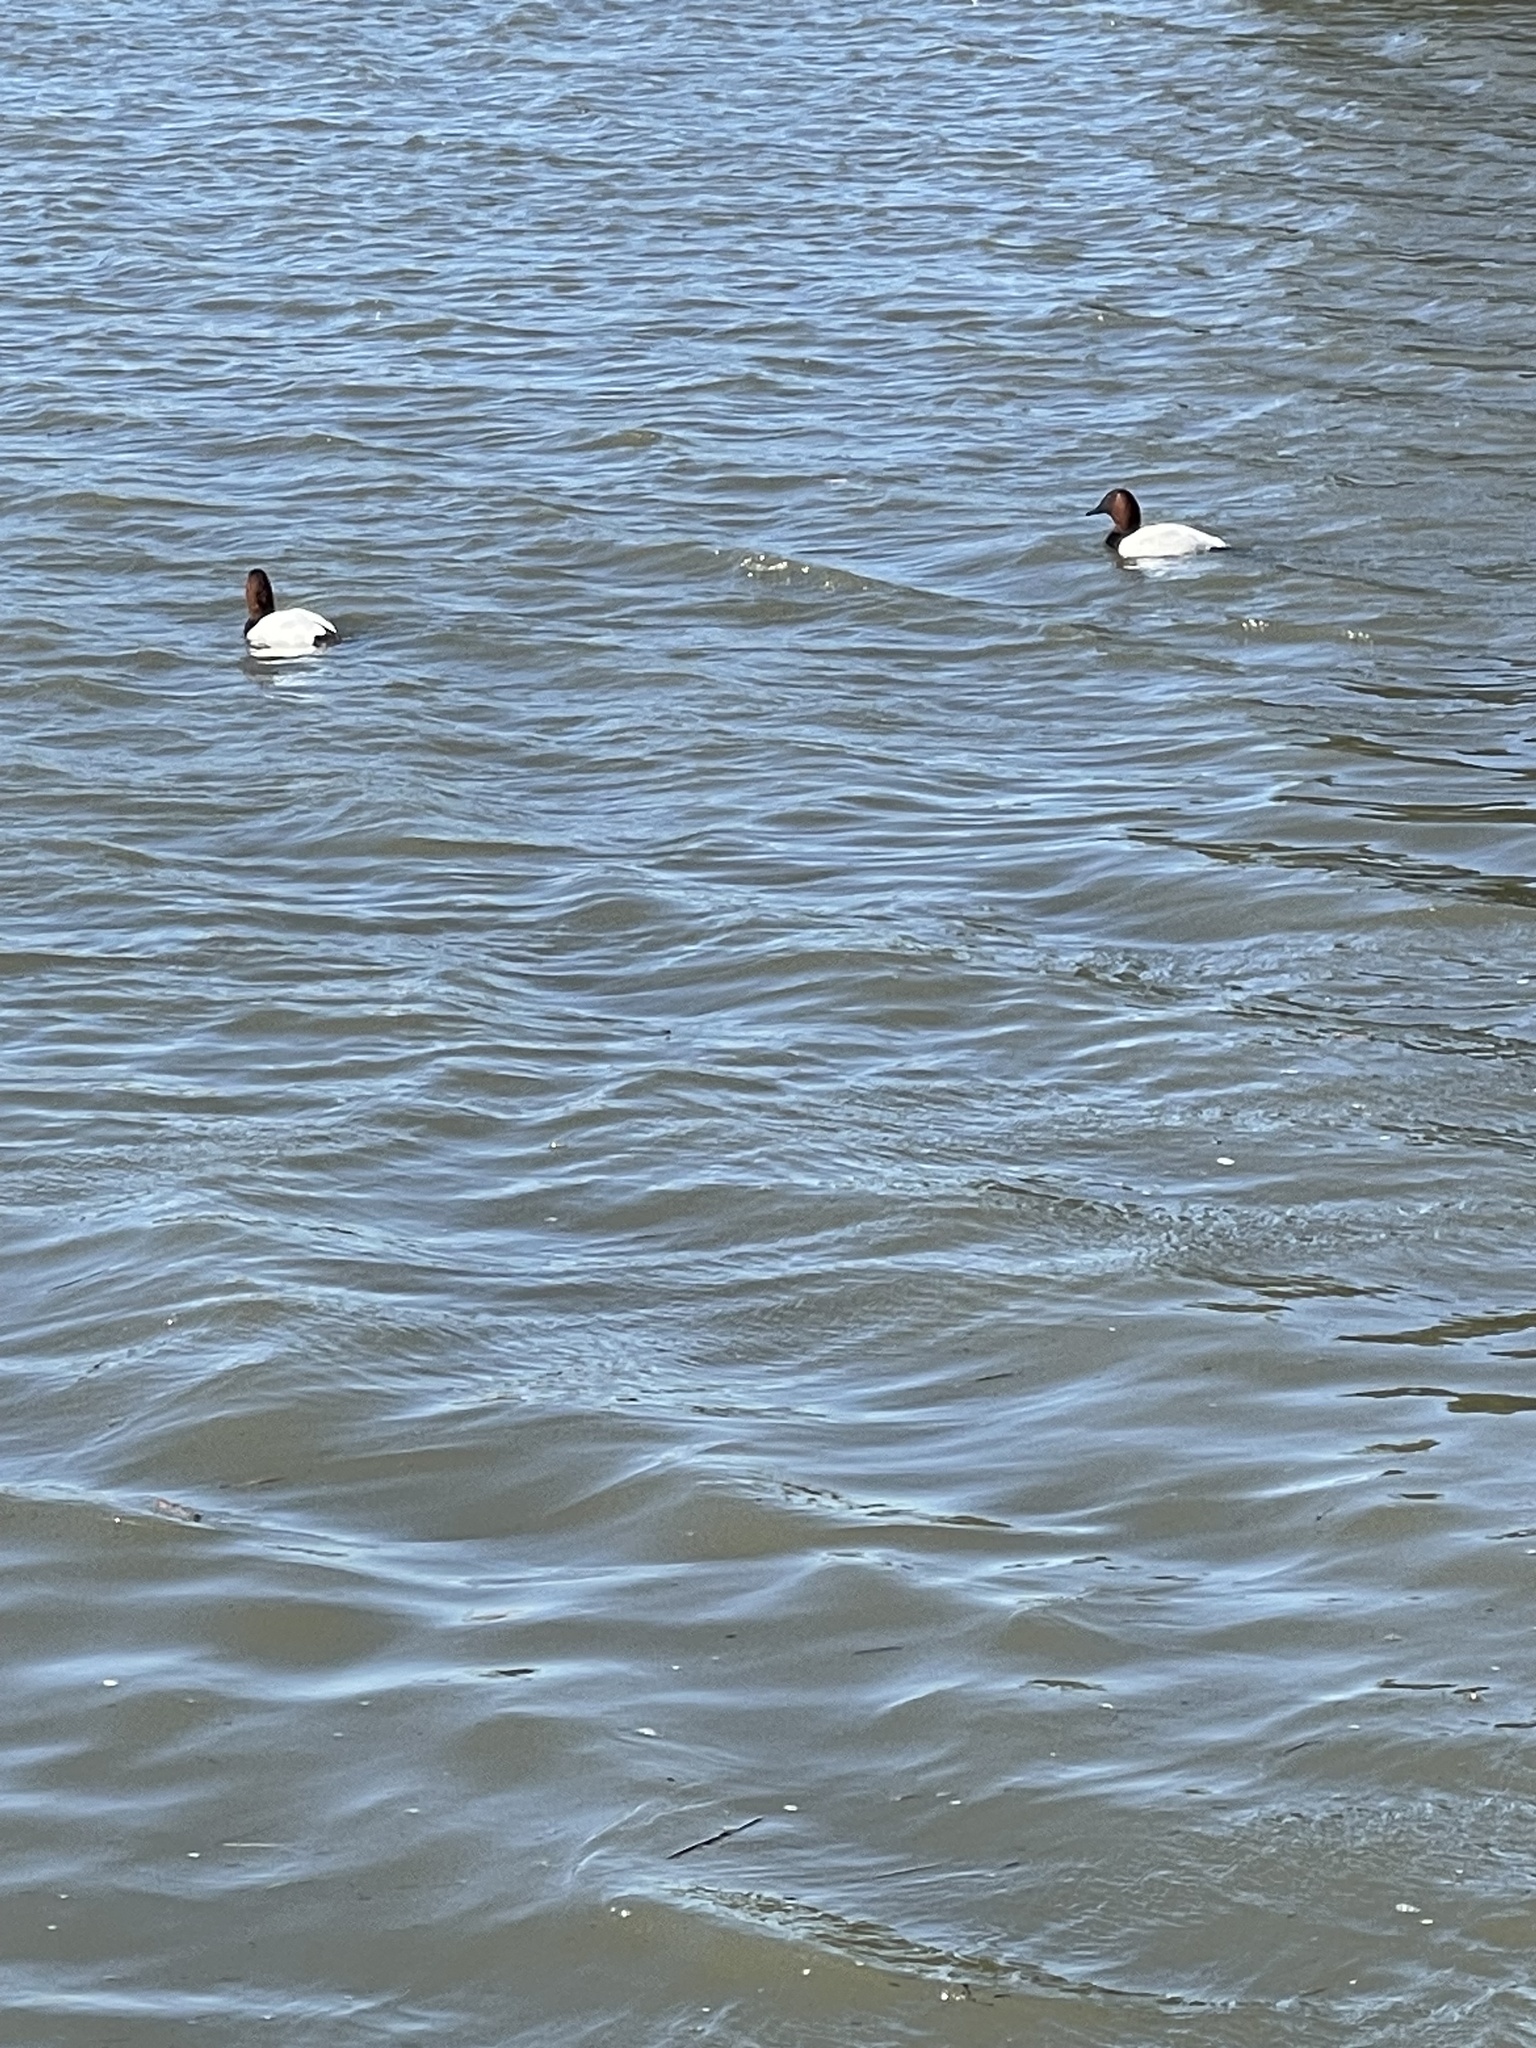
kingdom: Animalia
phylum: Chordata
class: Aves
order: Anseriformes
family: Anatidae
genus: Aythya
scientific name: Aythya valisineria
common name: Canvasback
